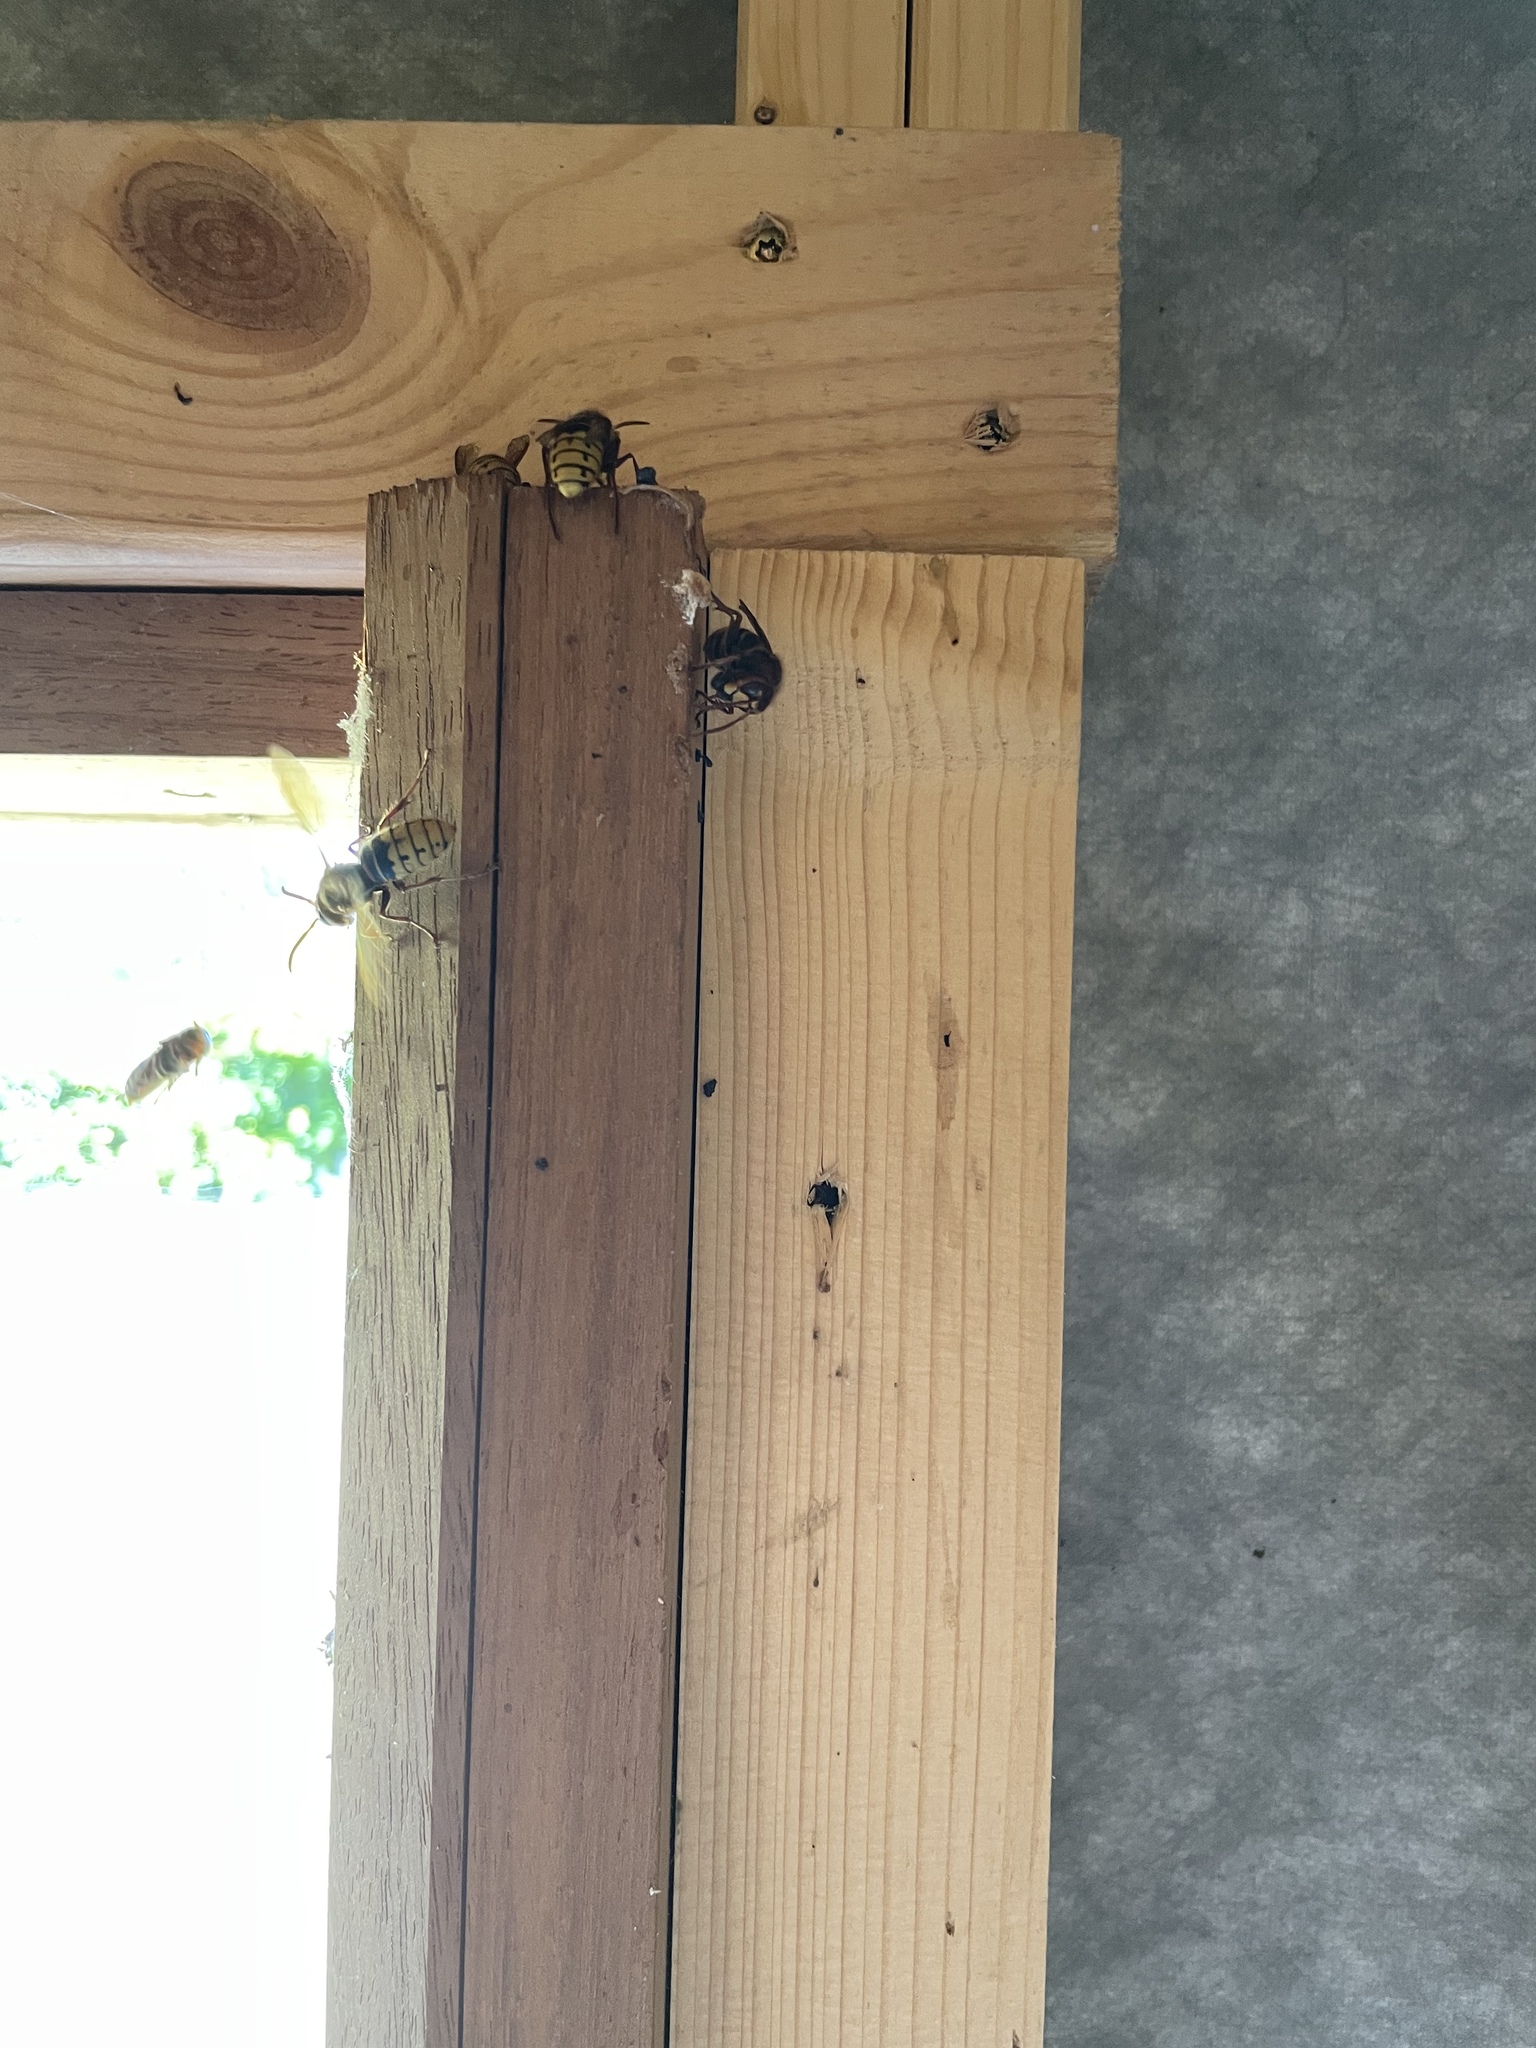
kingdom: Animalia
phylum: Arthropoda
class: Insecta
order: Hymenoptera
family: Vespidae
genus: Vespa
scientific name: Vespa crabro
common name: Hornet
